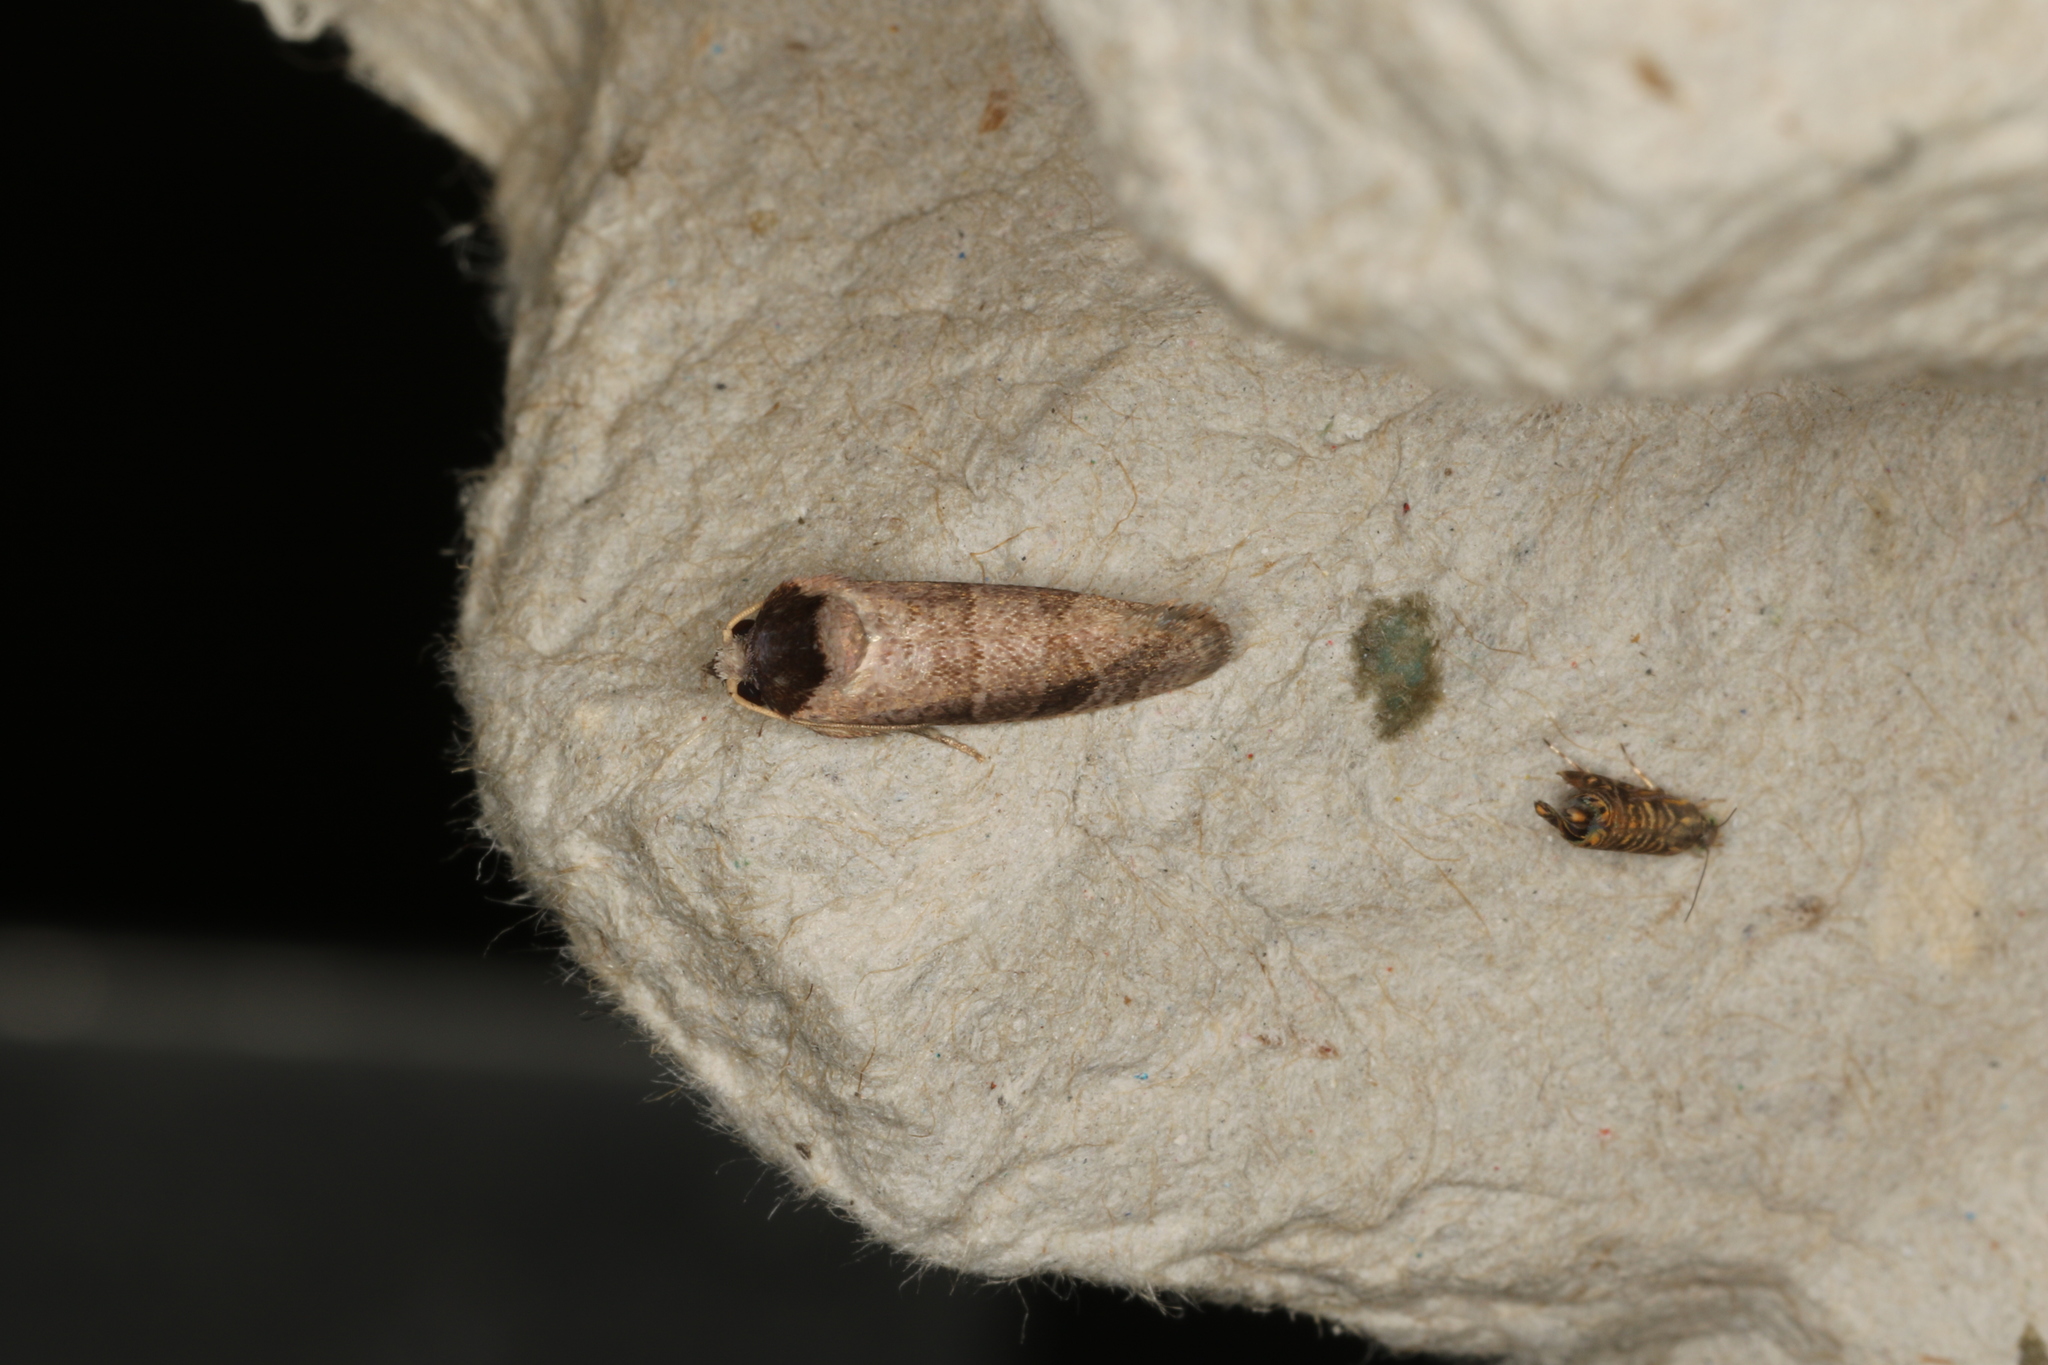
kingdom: Animalia
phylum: Arthropoda
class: Insecta
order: Lepidoptera
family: Cossidae
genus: Eusthenica
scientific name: Eusthenica treicleiota
